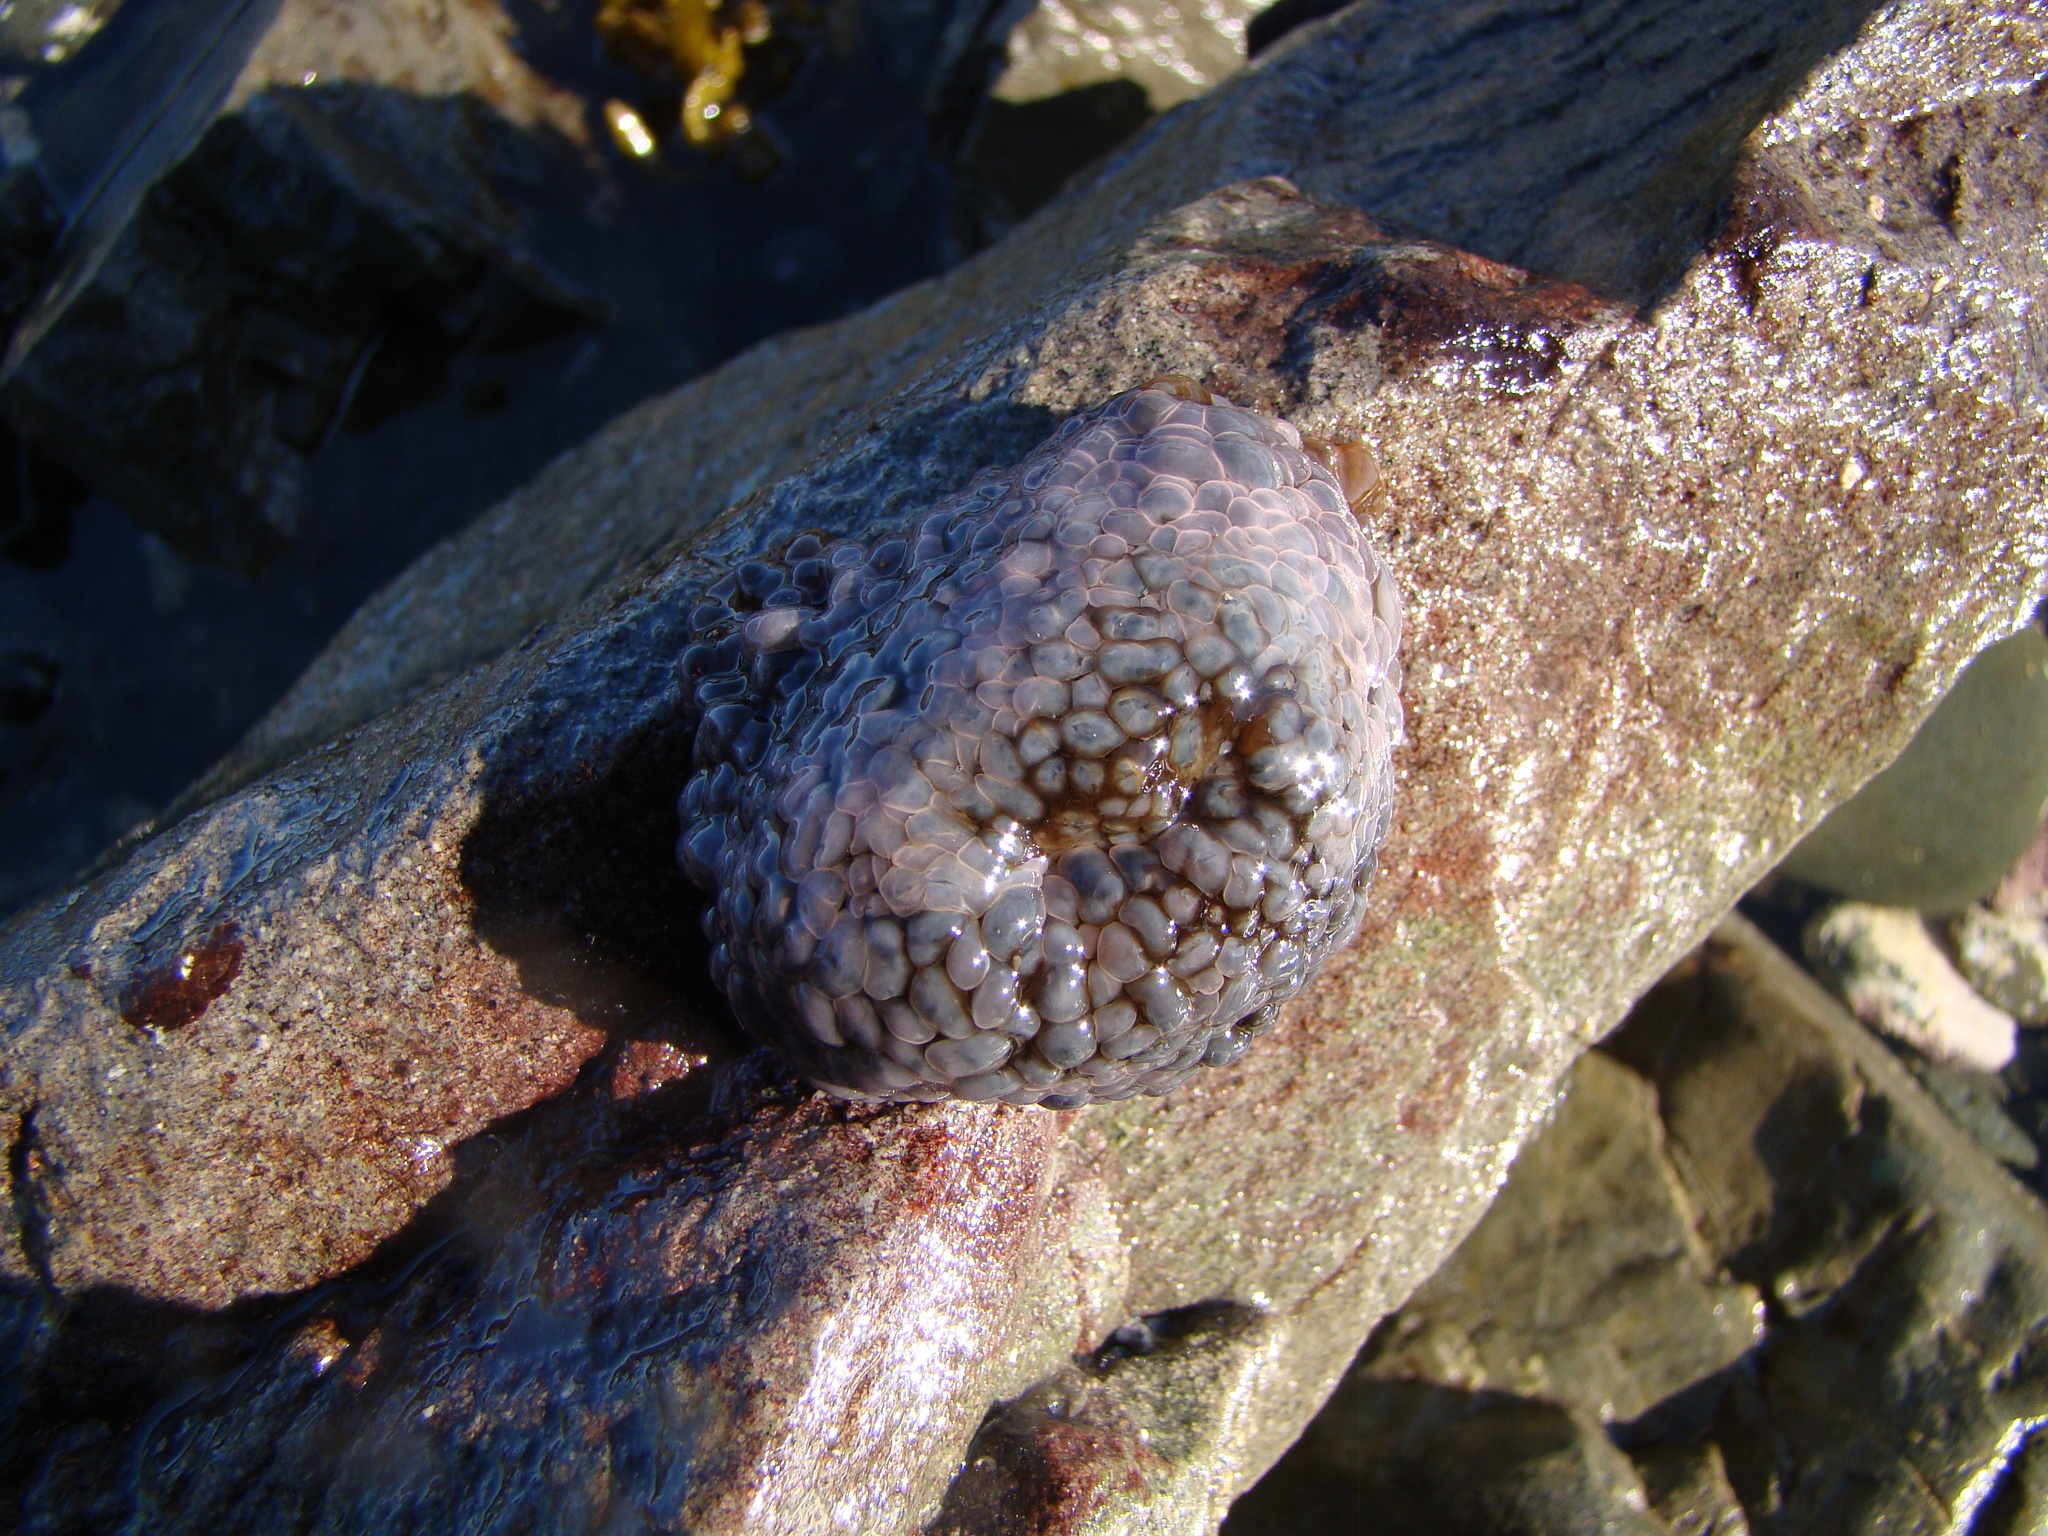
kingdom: Animalia
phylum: Cnidaria
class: Anthozoa
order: Actiniaria
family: Actiniidae
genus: Phlyctenactis
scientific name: Phlyctenactis tuberculosa
